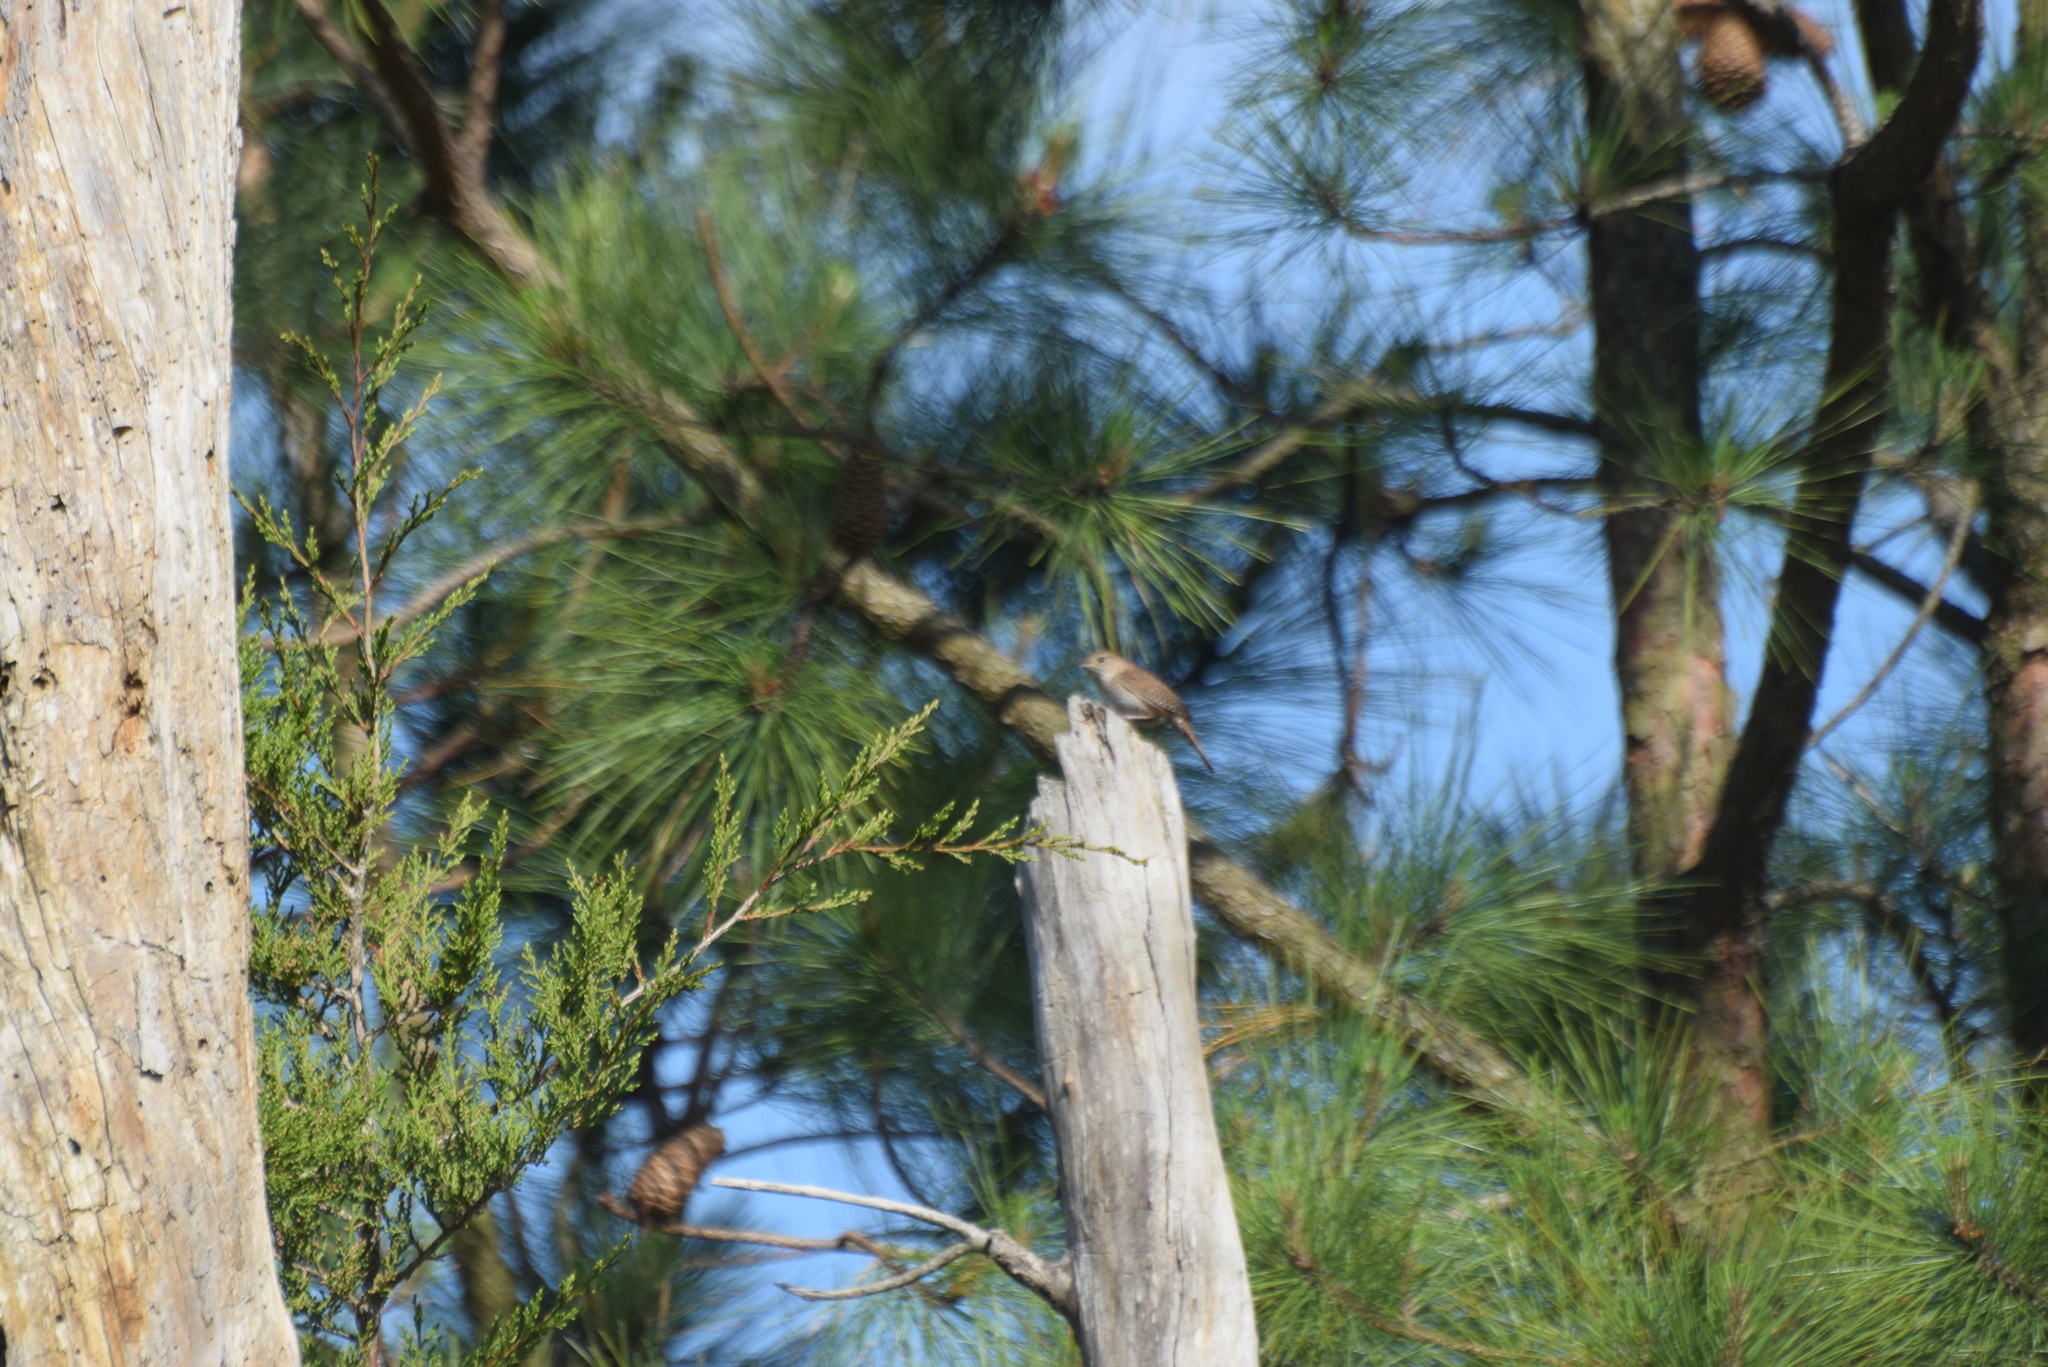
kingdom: Animalia
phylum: Chordata
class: Aves
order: Passeriformes
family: Troglodytidae
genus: Troglodytes
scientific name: Troglodytes aedon
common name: House wren
